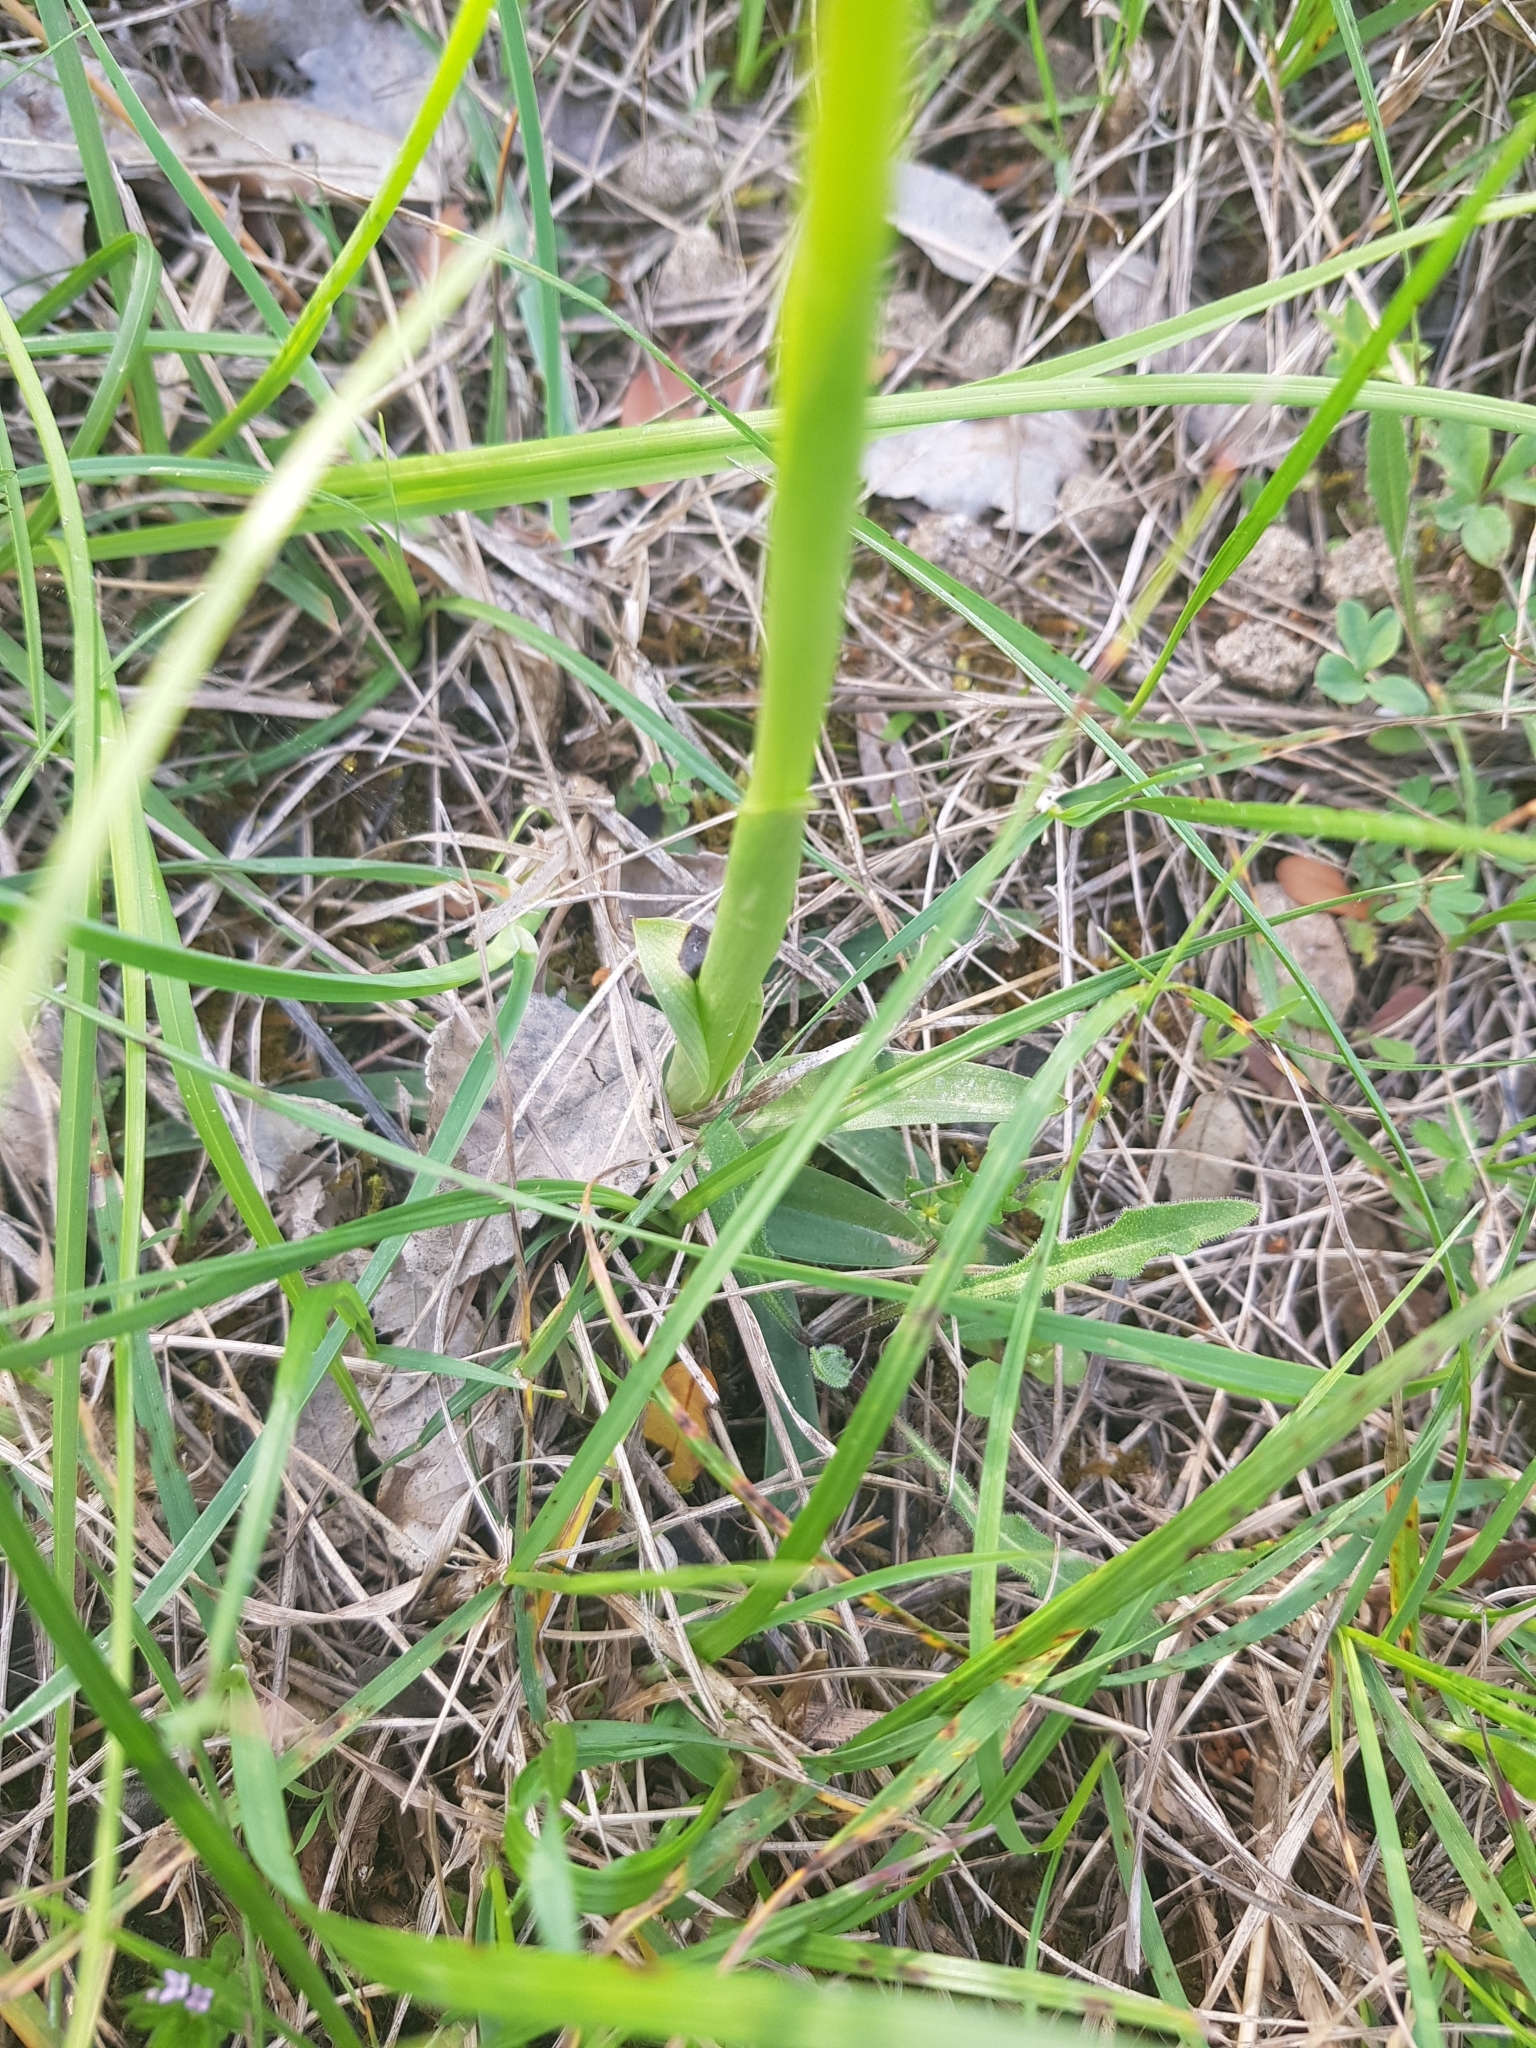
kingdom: Plantae
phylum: Tracheophyta
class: Liliopsida
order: Asparagales
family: Orchidaceae
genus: Anacamptis
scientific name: Anacamptis morio
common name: Green-winged orchid
